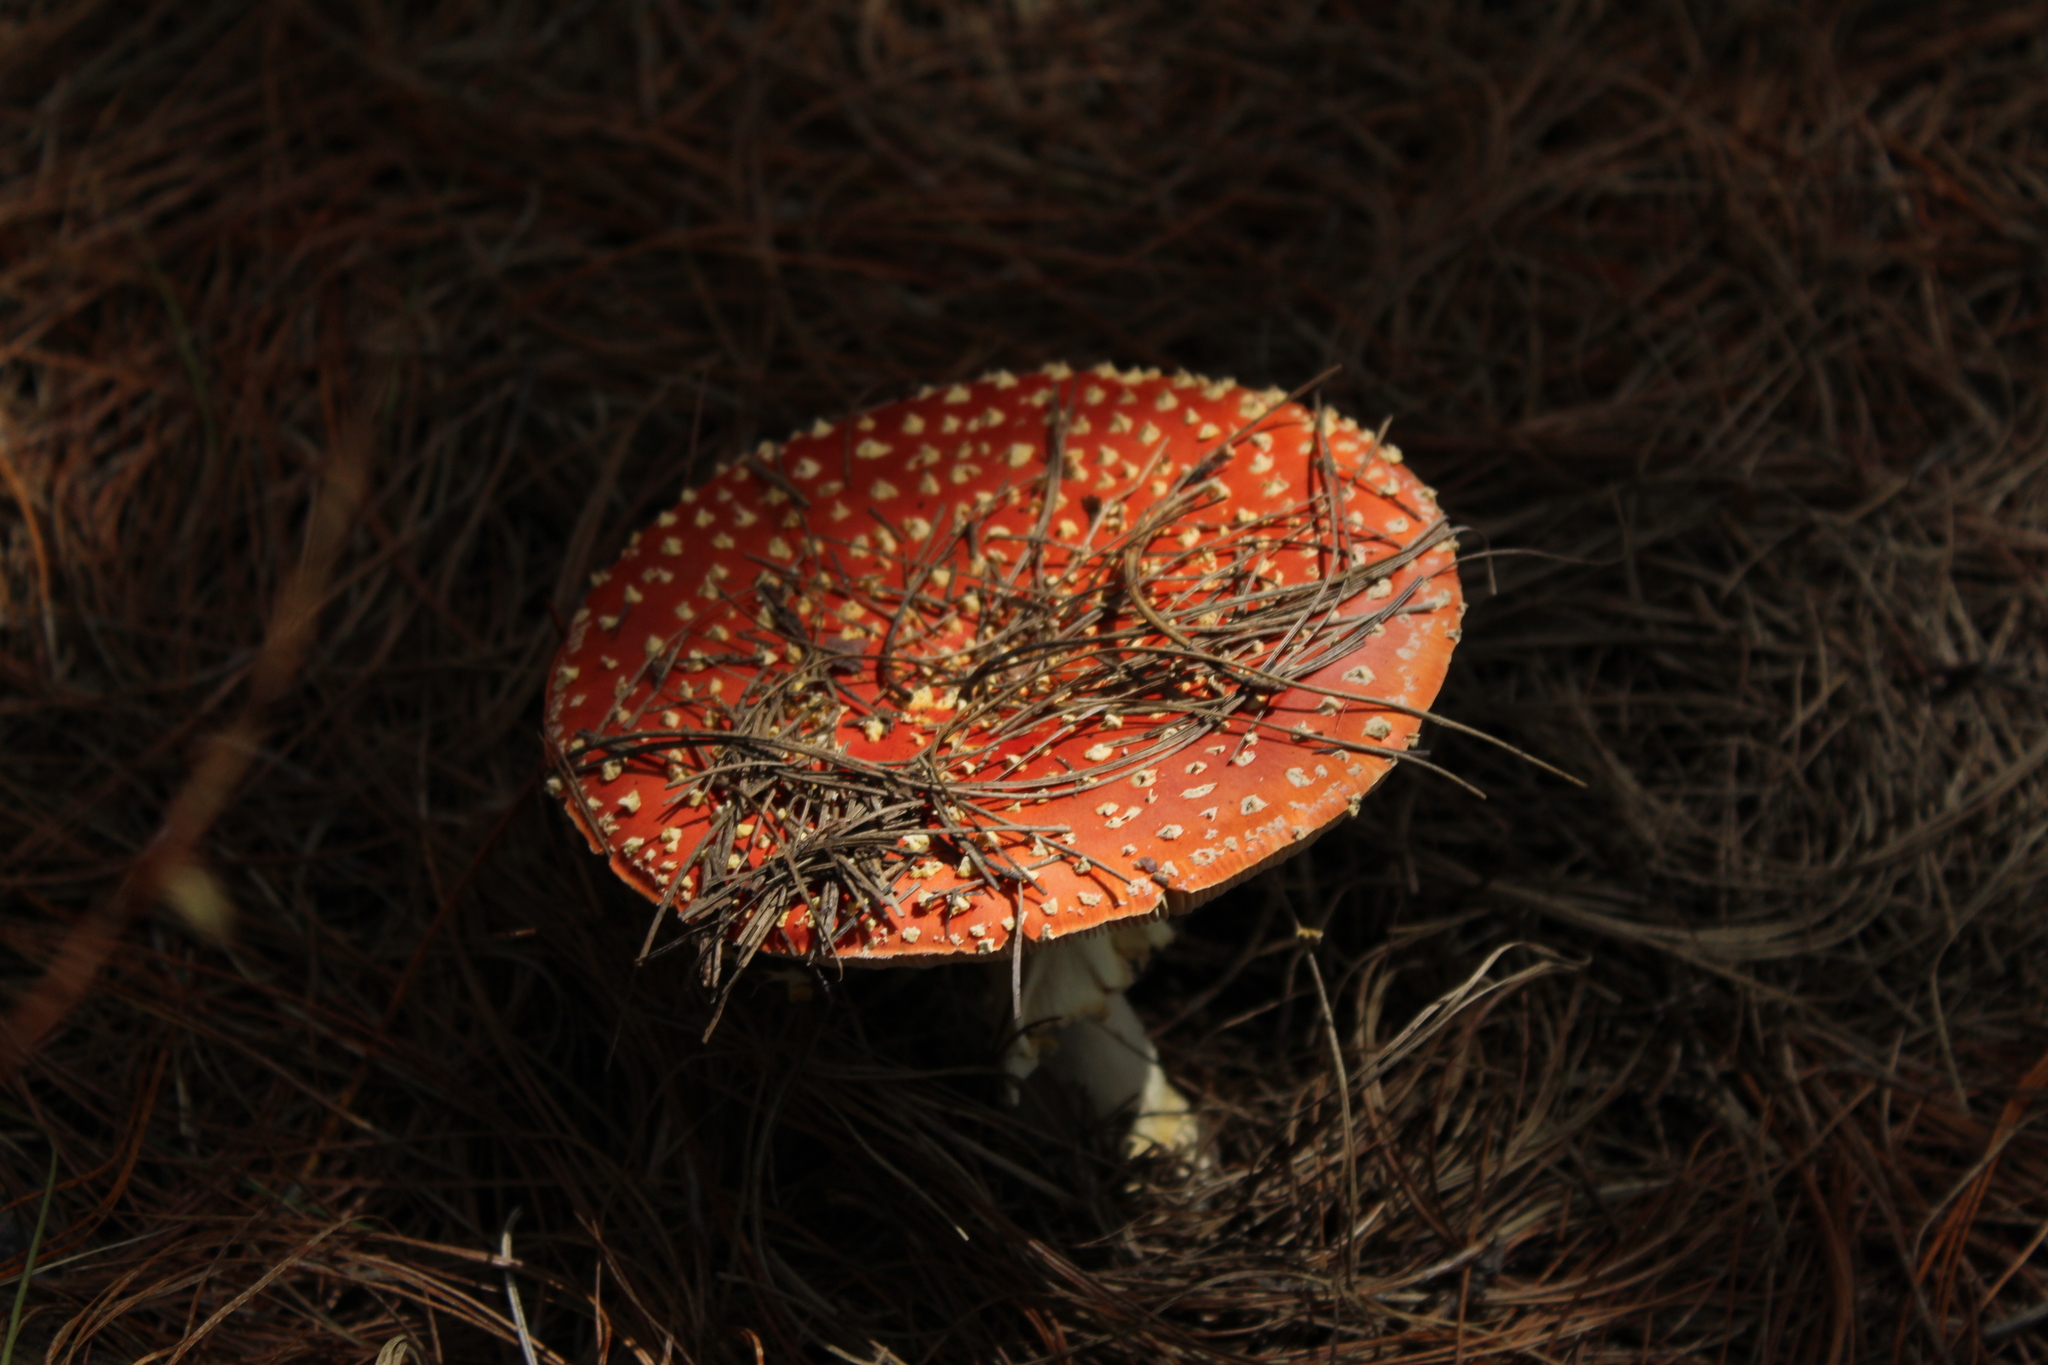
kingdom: Fungi
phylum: Basidiomycota
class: Agaricomycetes
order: Agaricales
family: Amanitaceae
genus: Amanita
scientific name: Amanita muscaria
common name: Fly agaric
